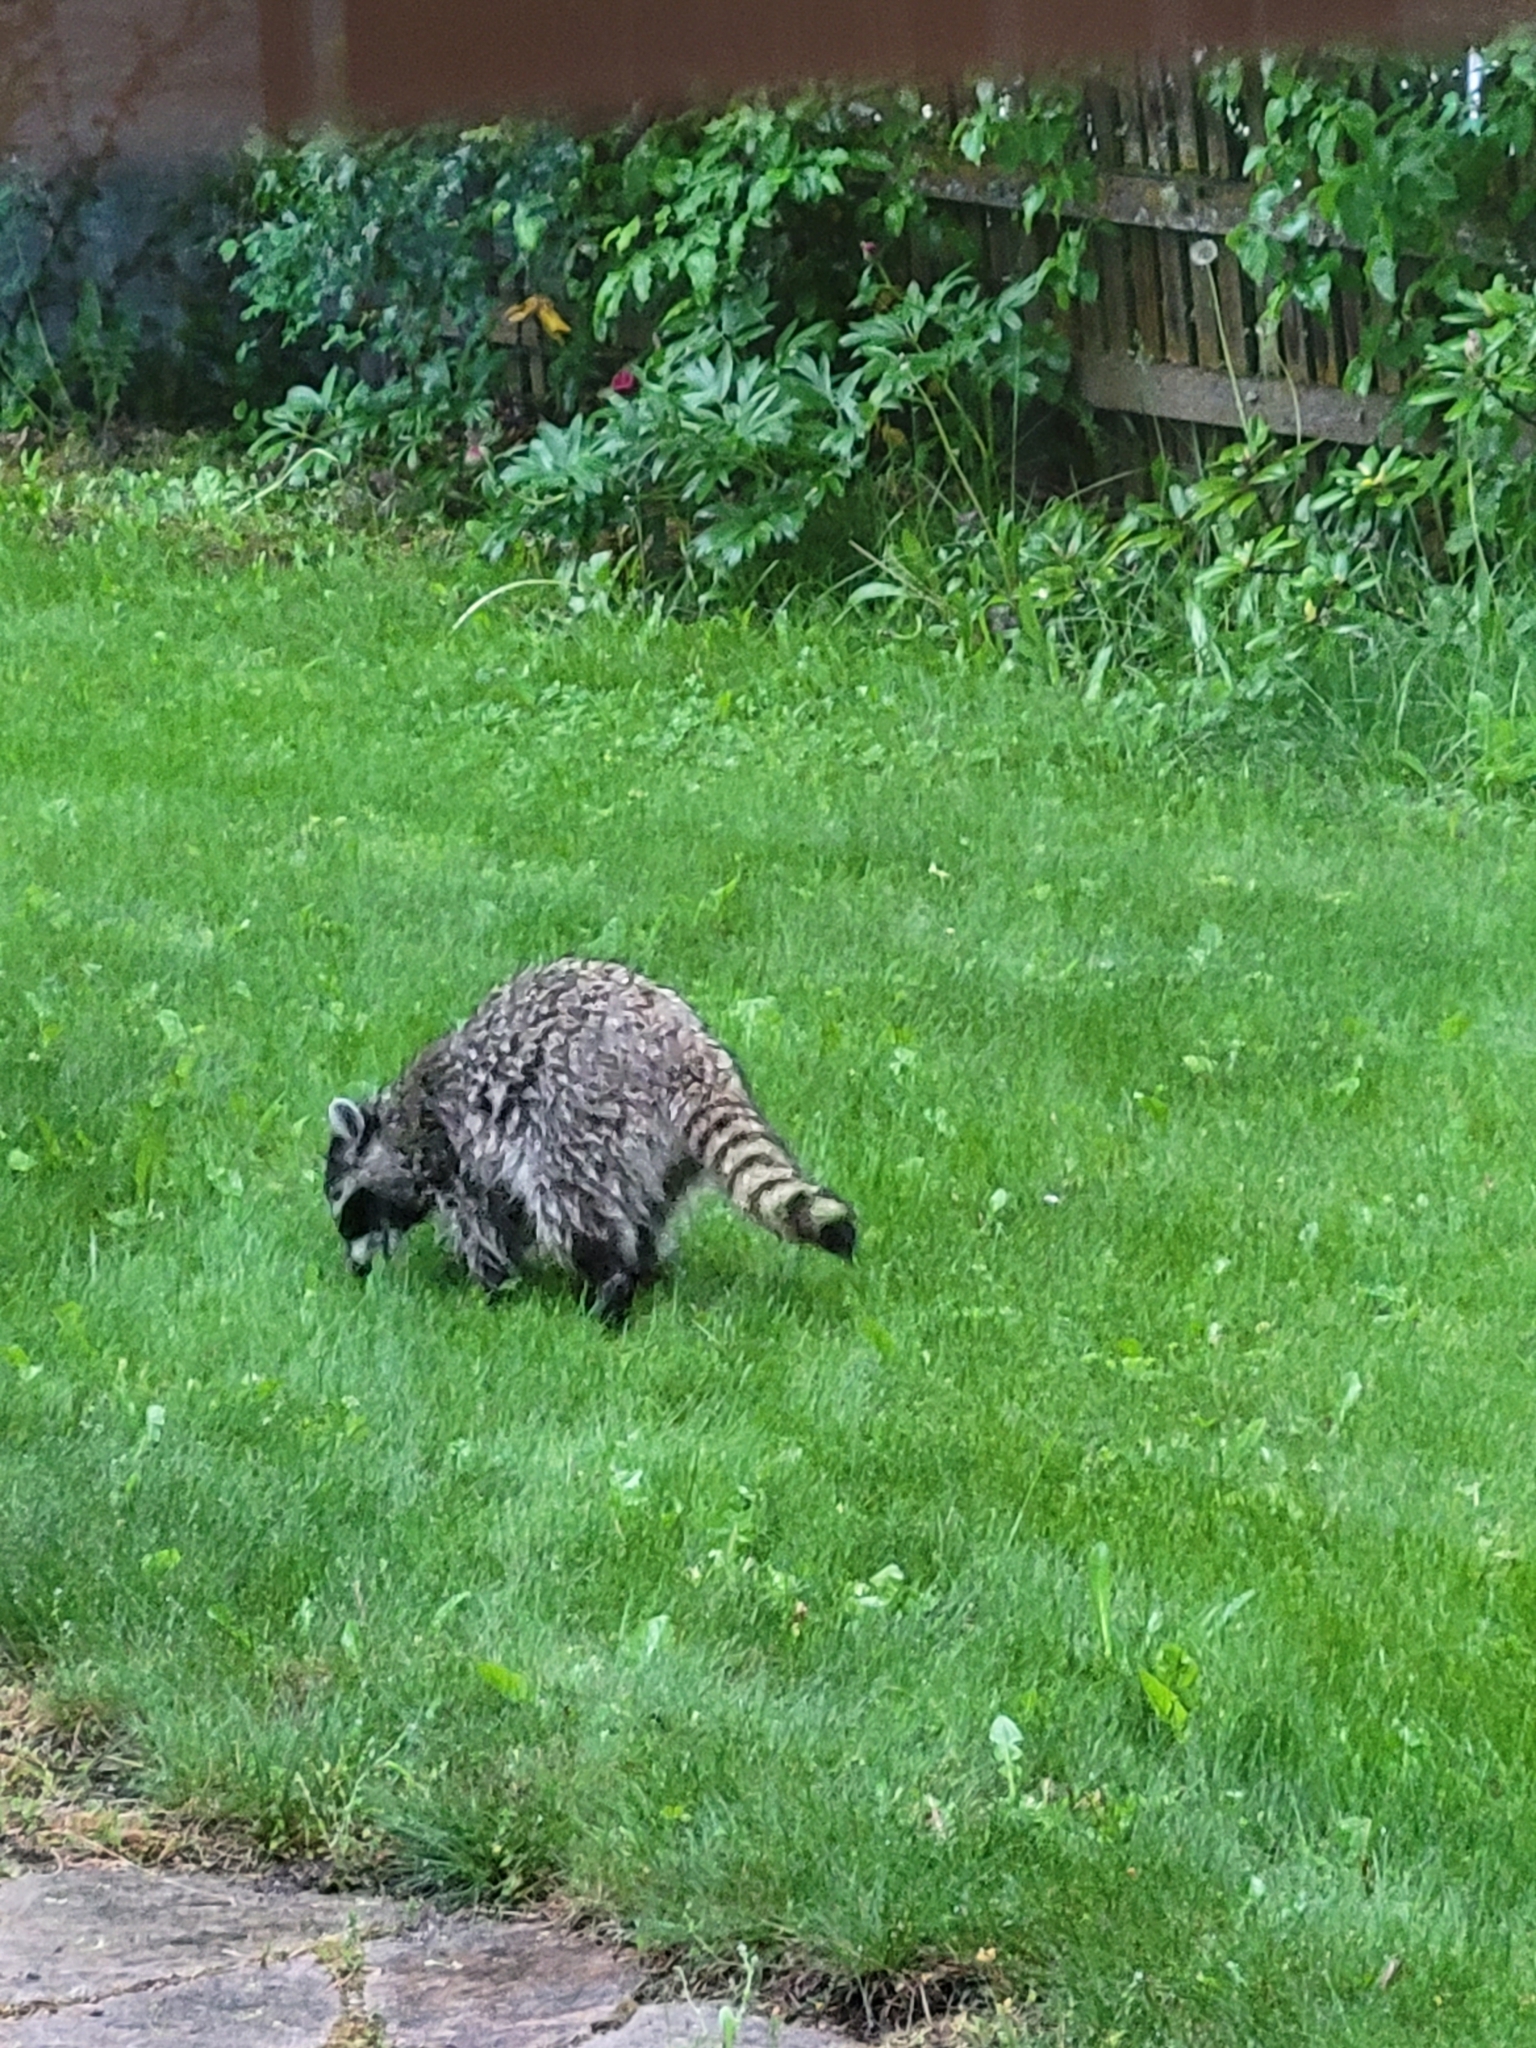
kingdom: Animalia
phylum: Chordata
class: Mammalia
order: Carnivora
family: Procyonidae
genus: Procyon
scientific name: Procyon lotor
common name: Raccoon
